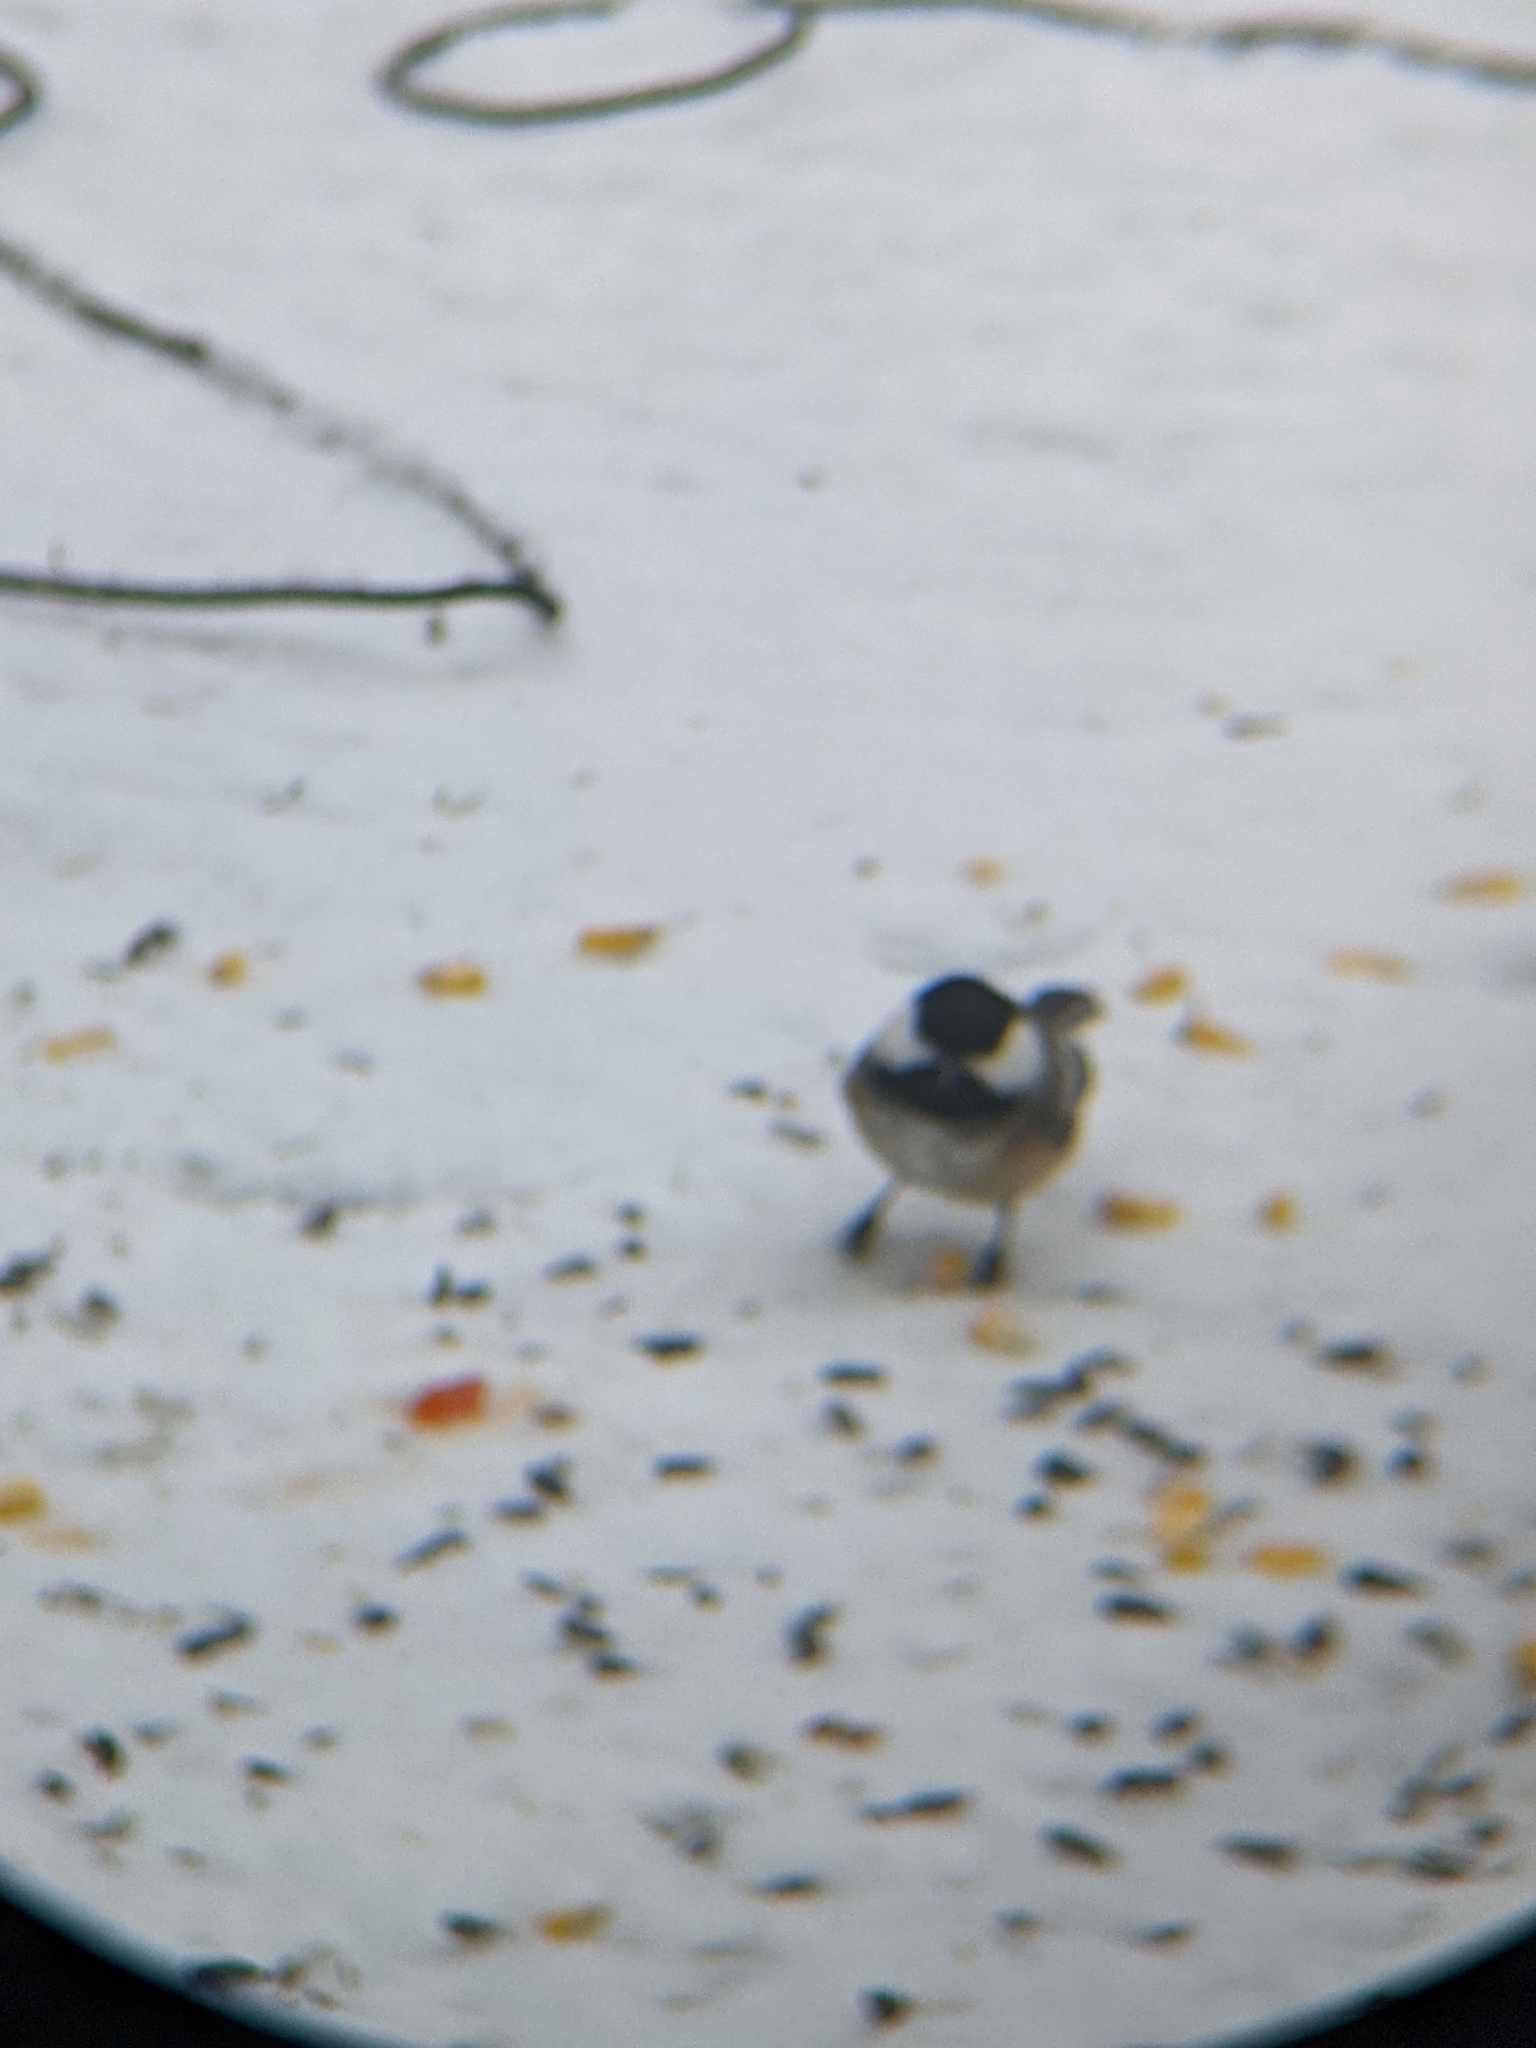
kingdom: Animalia
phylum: Chordata
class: Aves
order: Passeriformes
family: Paridae
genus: Poecile
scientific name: Poecile atricapillus
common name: Black-capped chickadee
